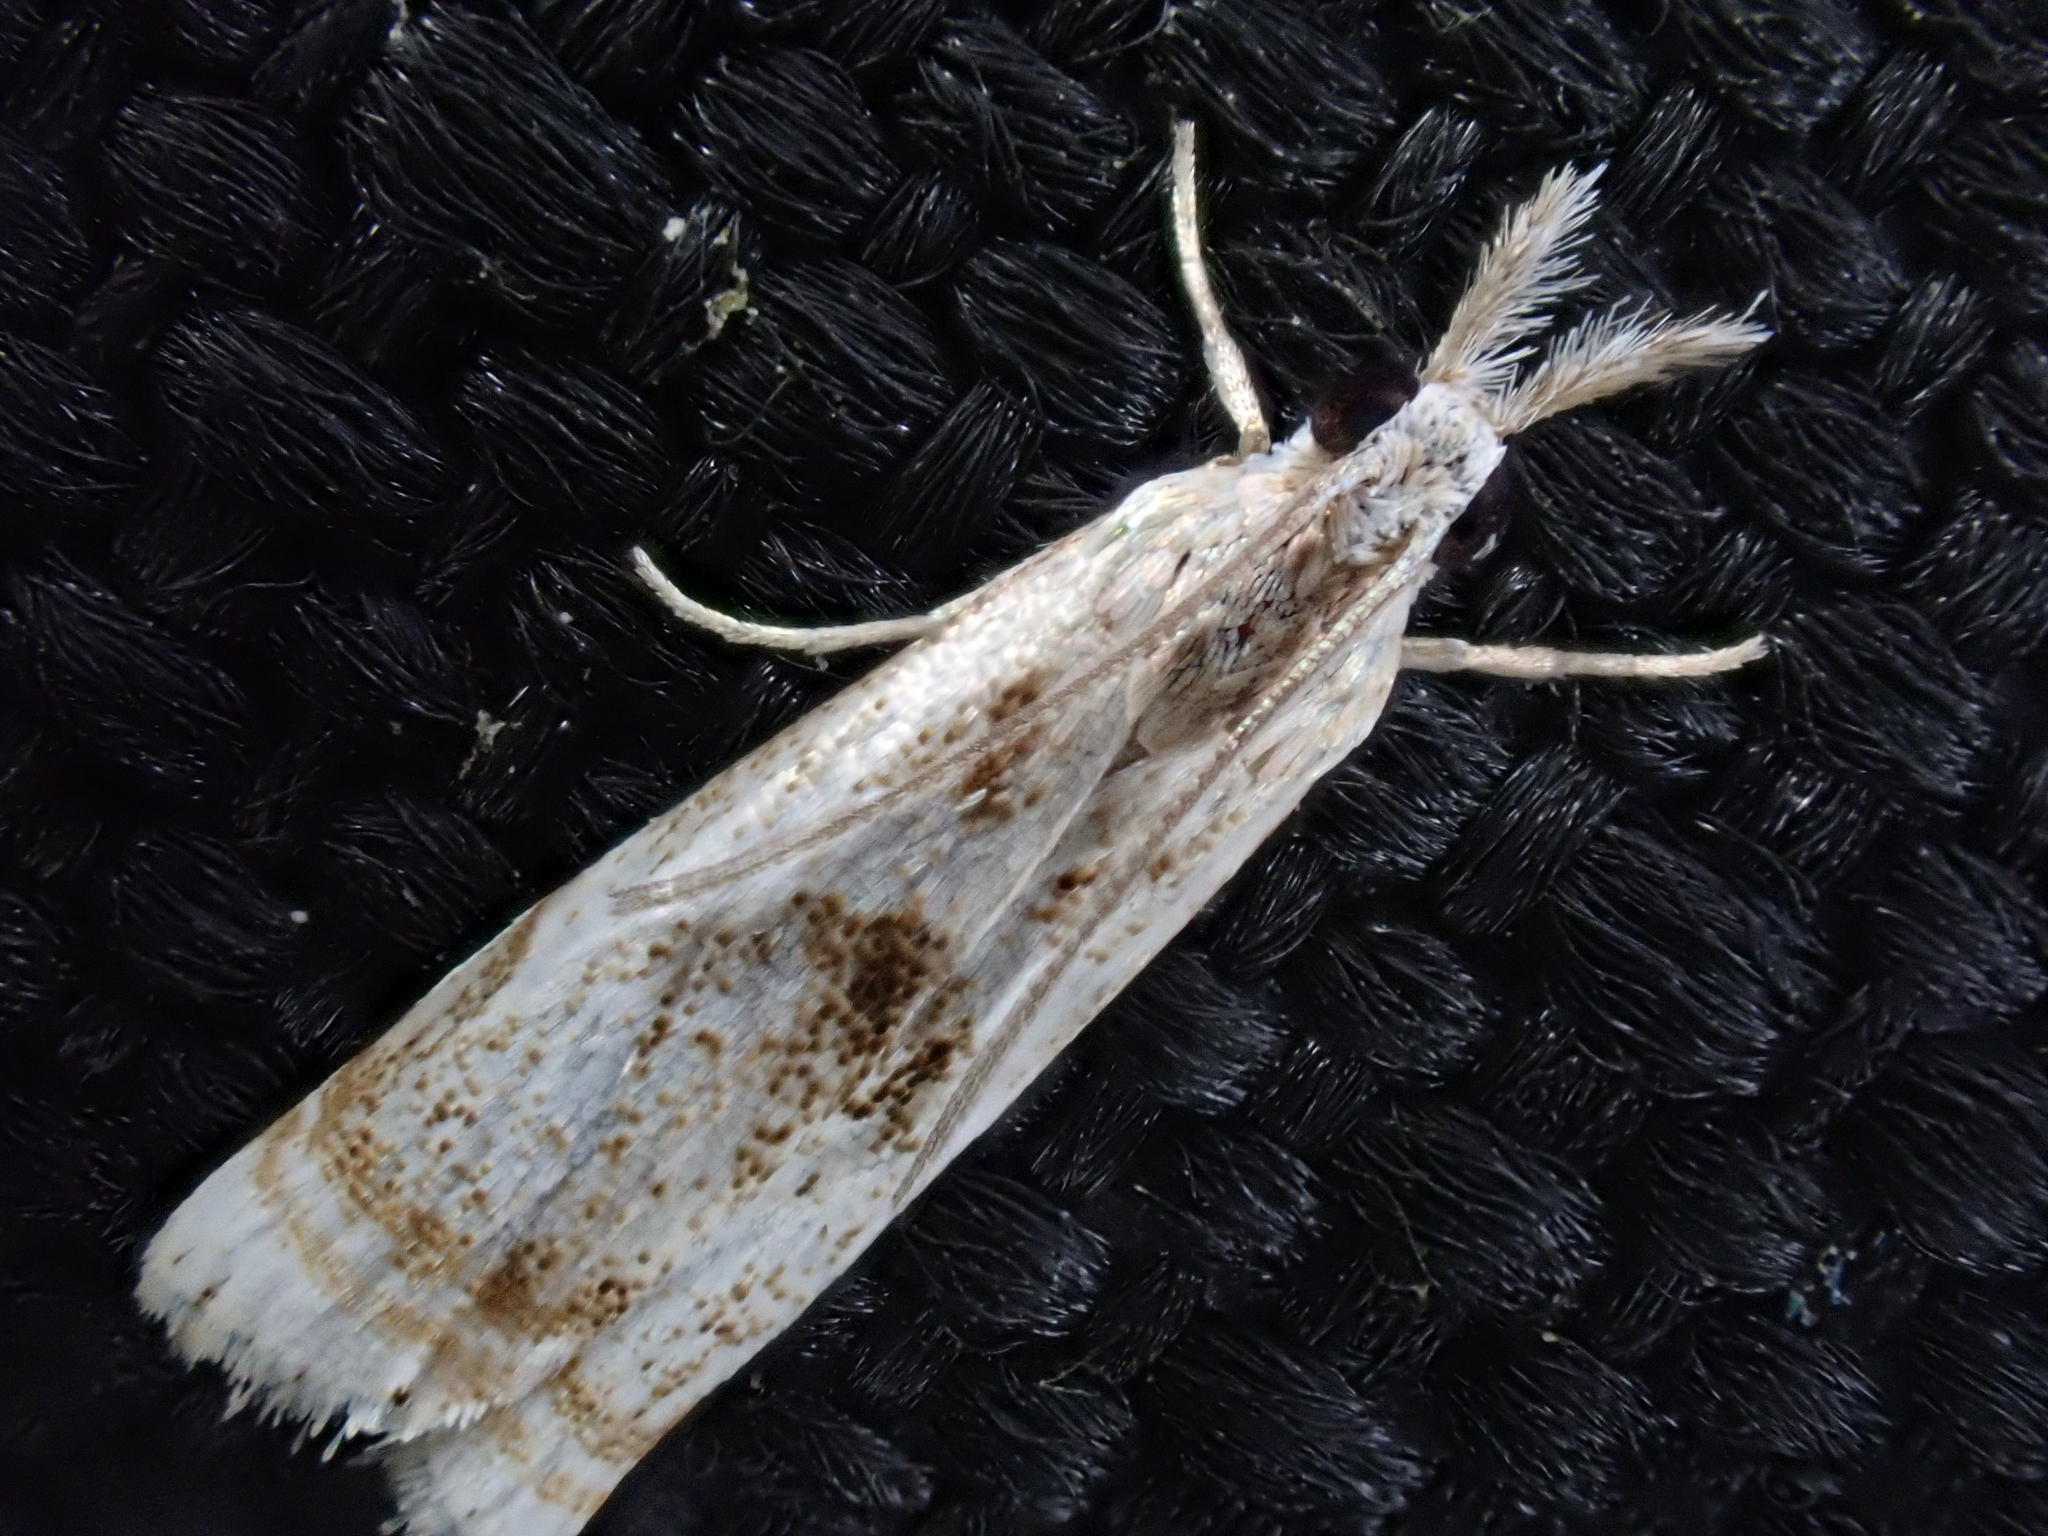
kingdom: Animalia
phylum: Arthropoda
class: Insecta
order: Lepidoptera
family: Crambidae
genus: Microcrambus
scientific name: Microcrambus elegans
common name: Elegant grass-veneer
